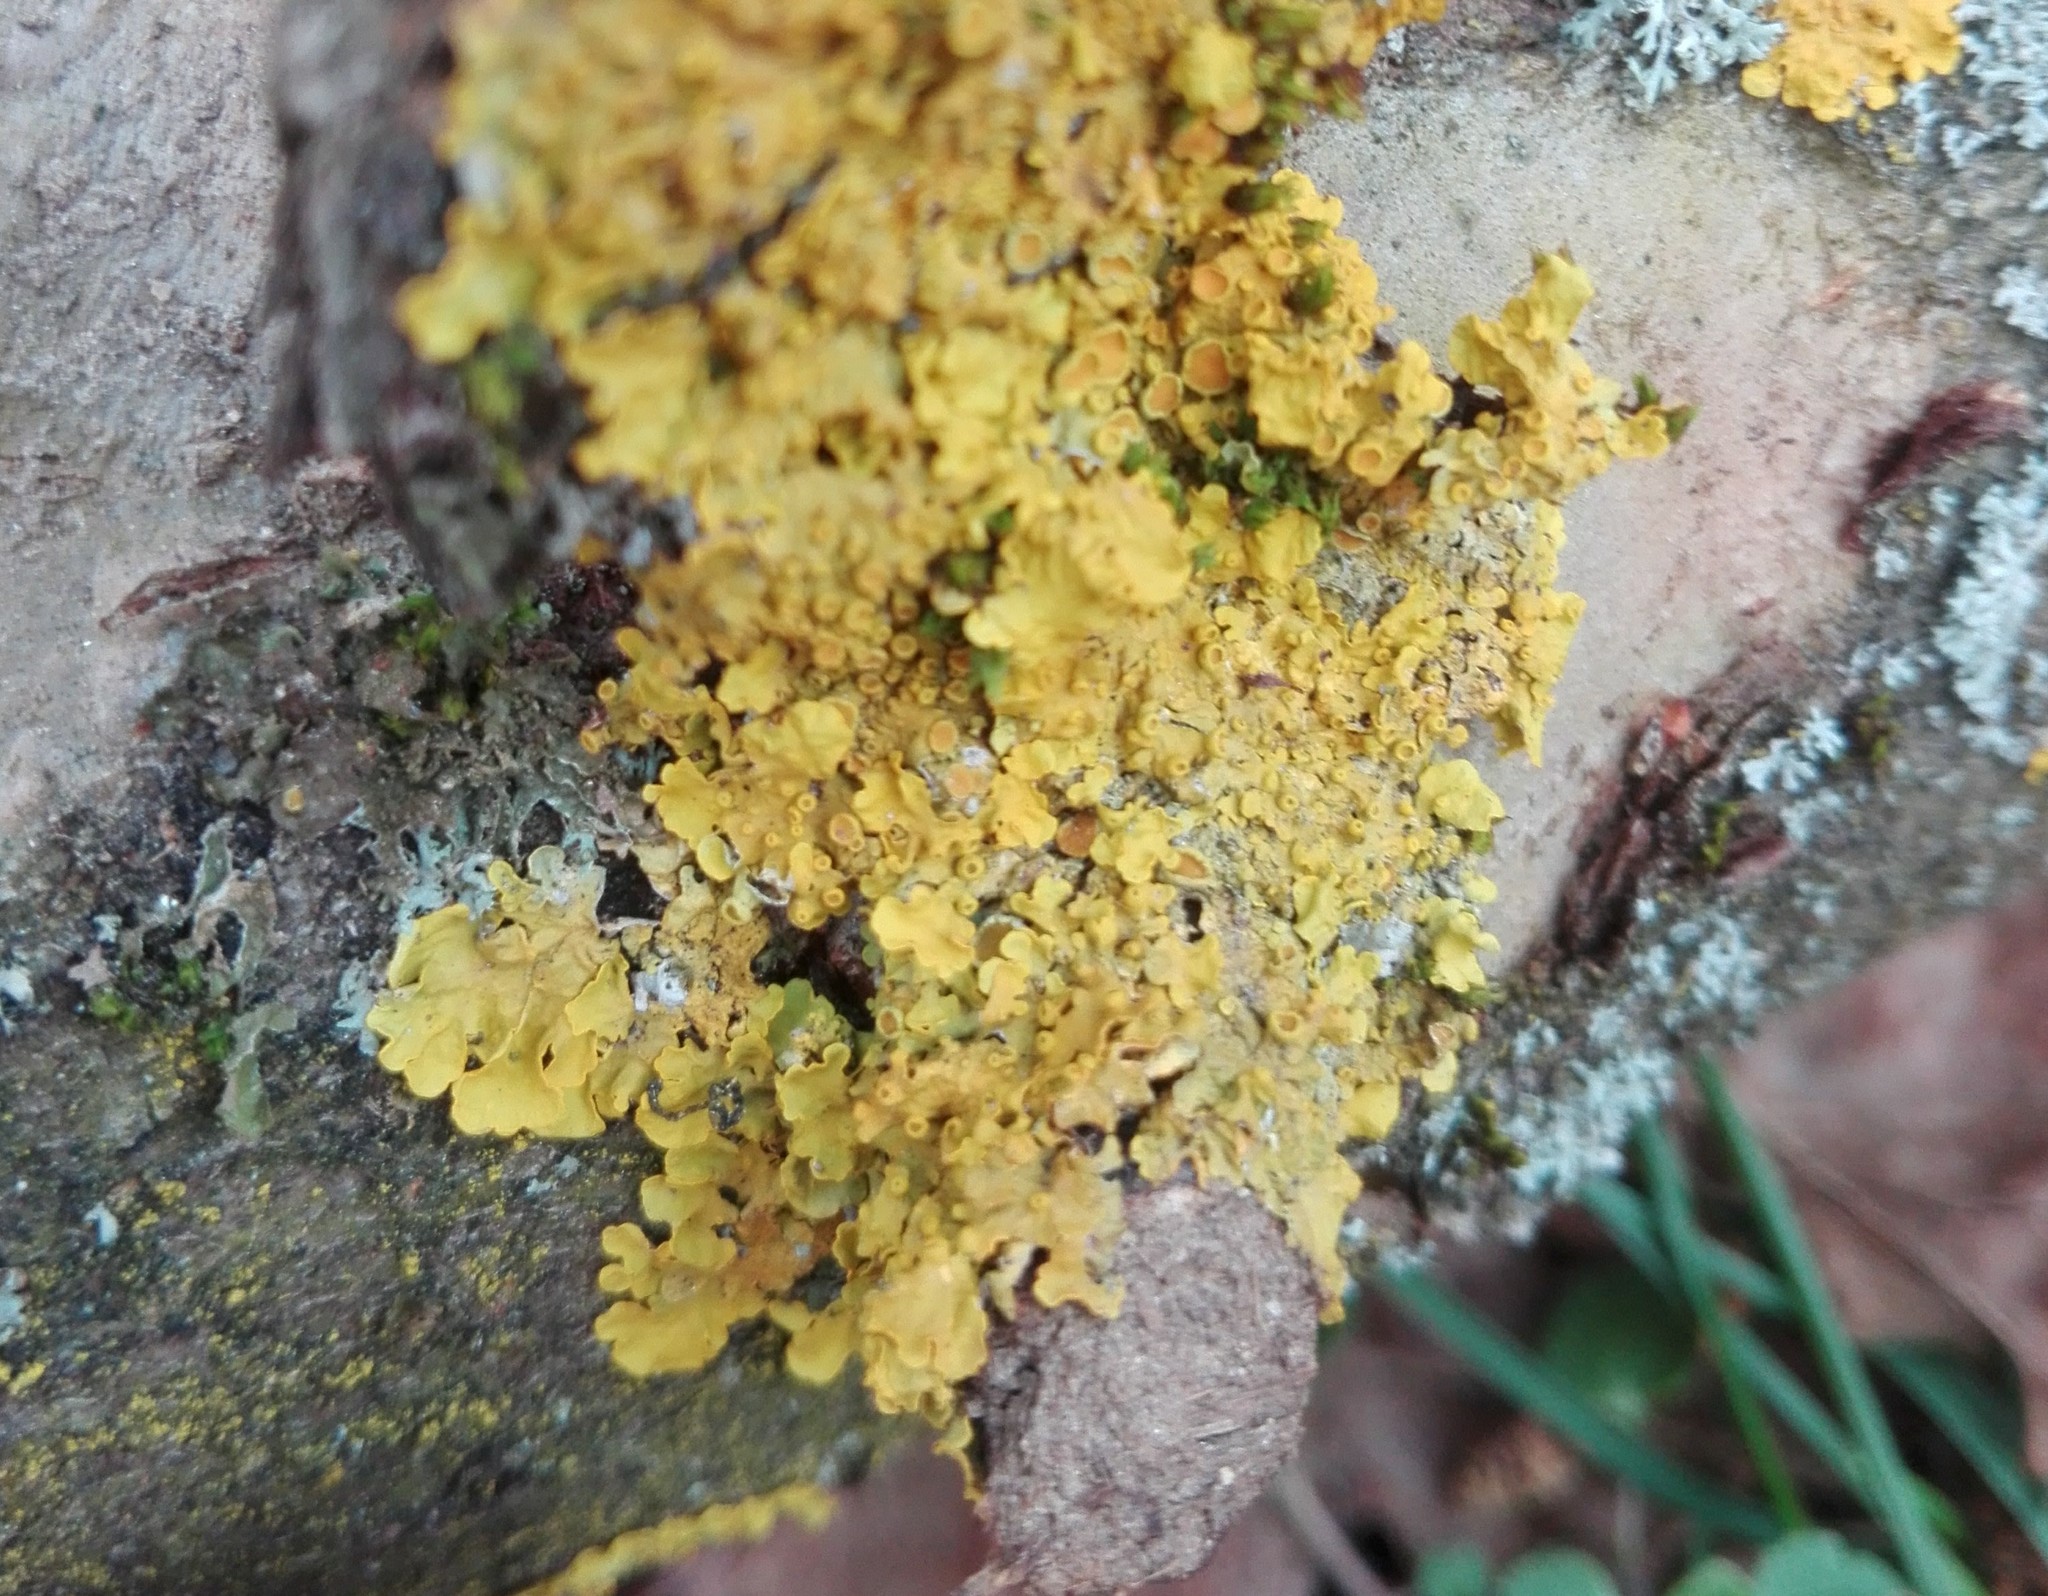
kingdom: Fungi
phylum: Ascomycota
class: Lecanoromycetes
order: Teloschistales
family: Teloschistaceae
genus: Xanthoria
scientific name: Xanthoria parietina
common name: Common orange lichen
